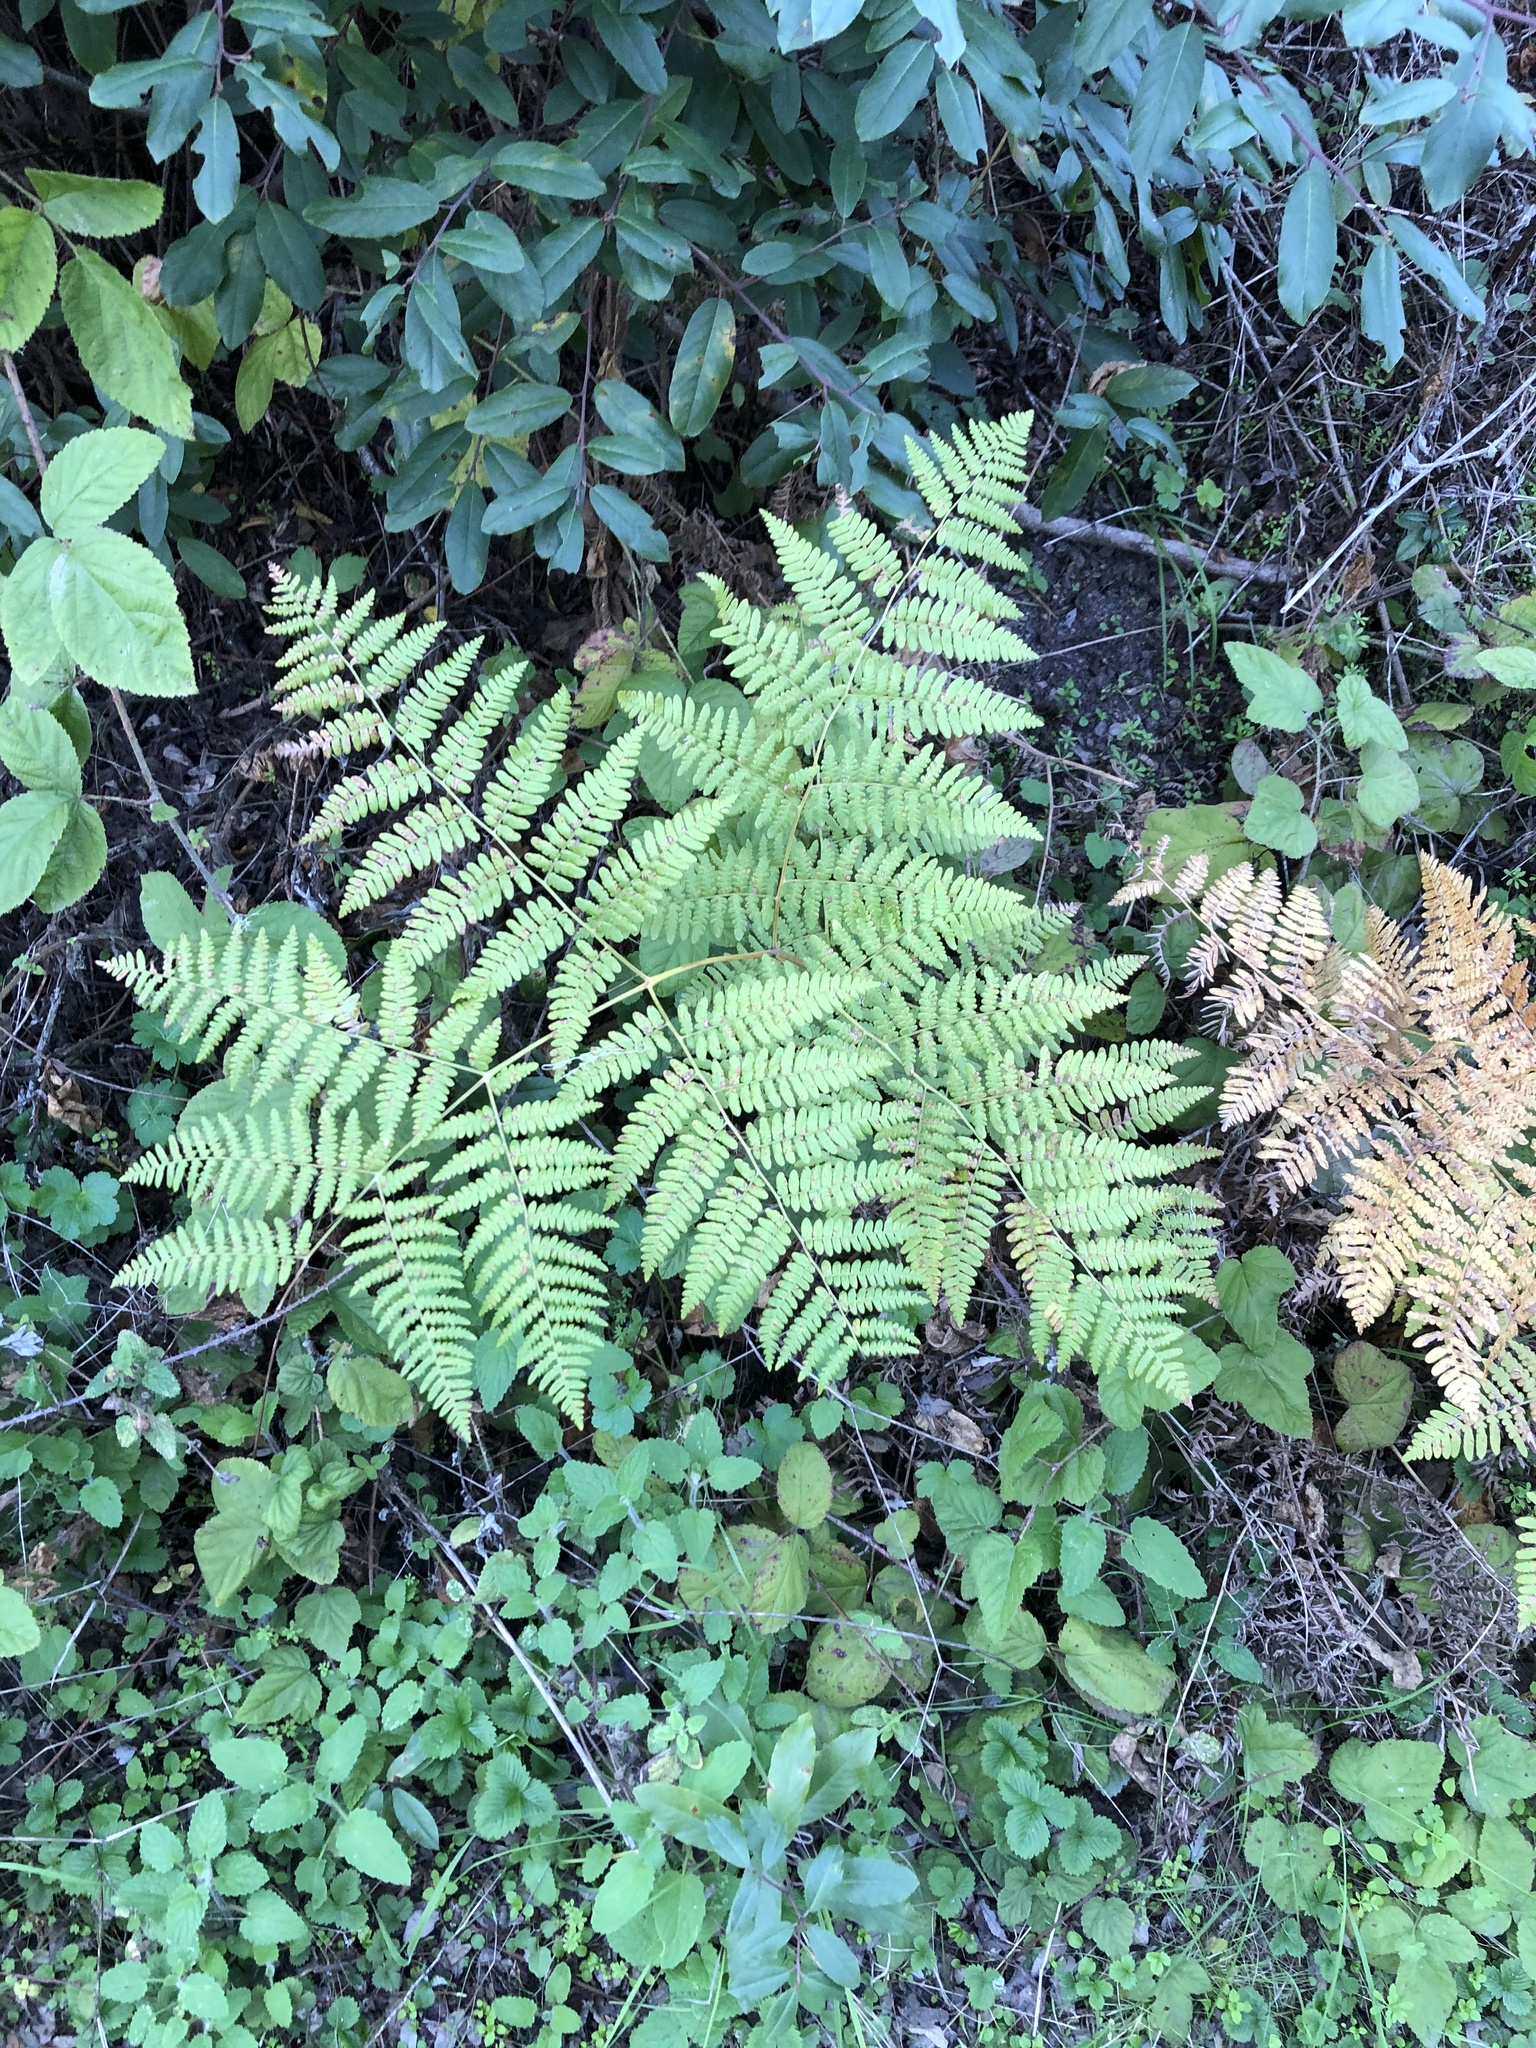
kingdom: Plantae
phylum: Tracheophyta
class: Polypodiopsida
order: Polypodiales
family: Dennstaedtiaceae
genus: Pteridium
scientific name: Pteridium aquilinum
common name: Bracken
